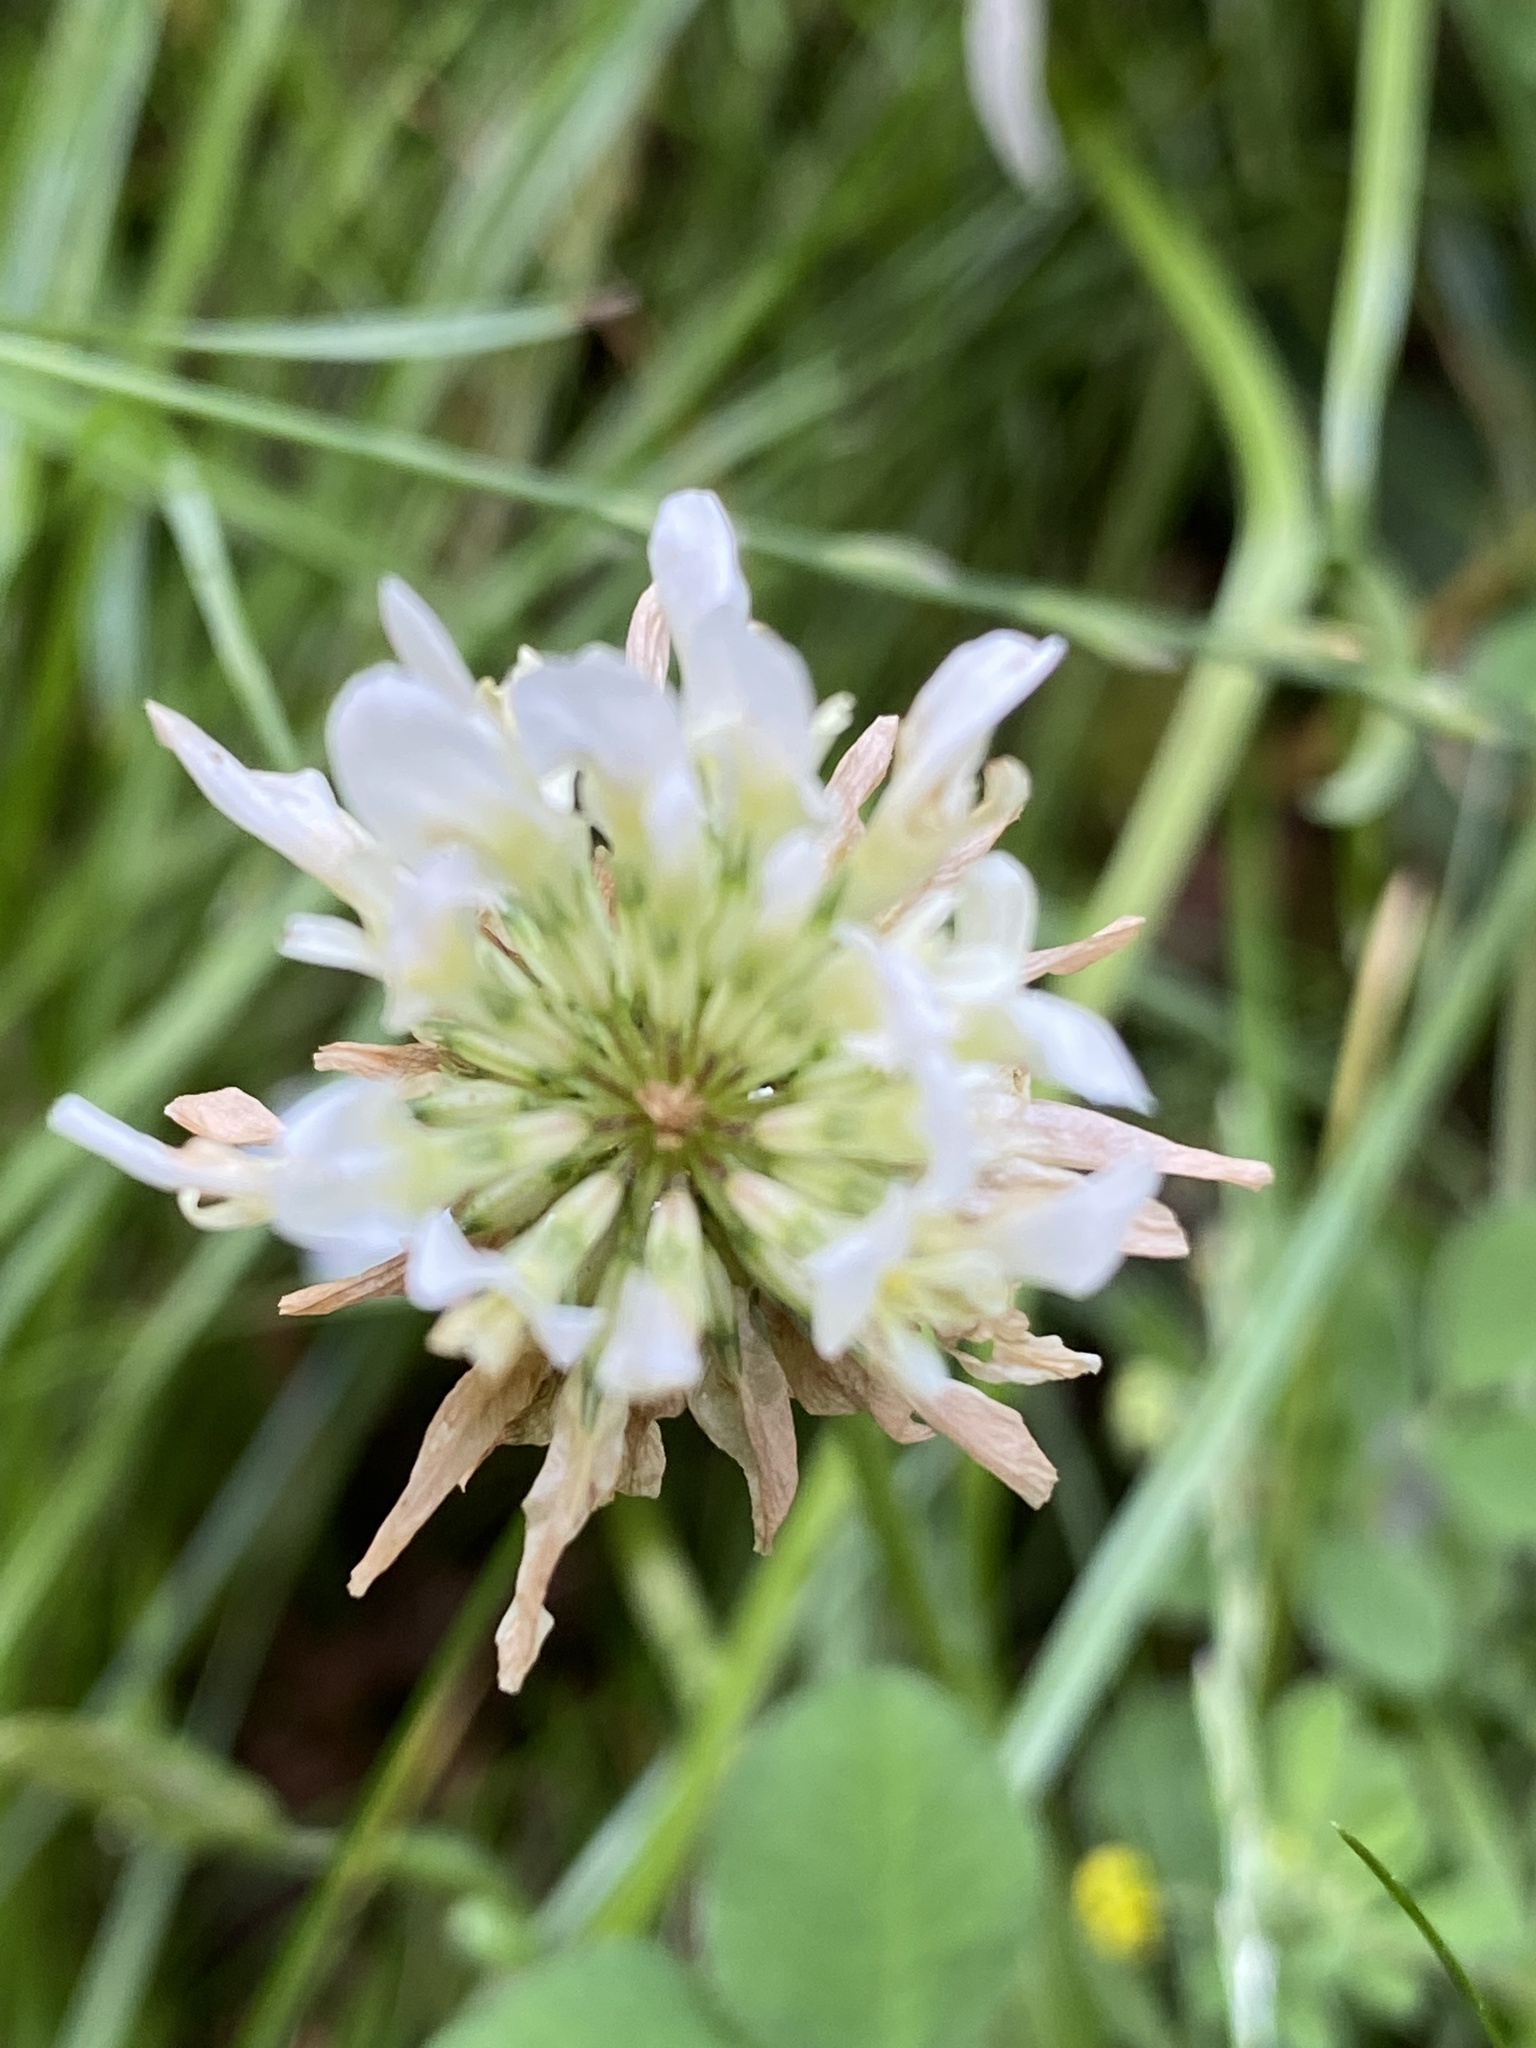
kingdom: Plantae
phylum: Tracheophyta
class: Magnoliopsida
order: Fabales
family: Fabaceae
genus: Trifolium
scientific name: Trifolium repens
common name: White clover
